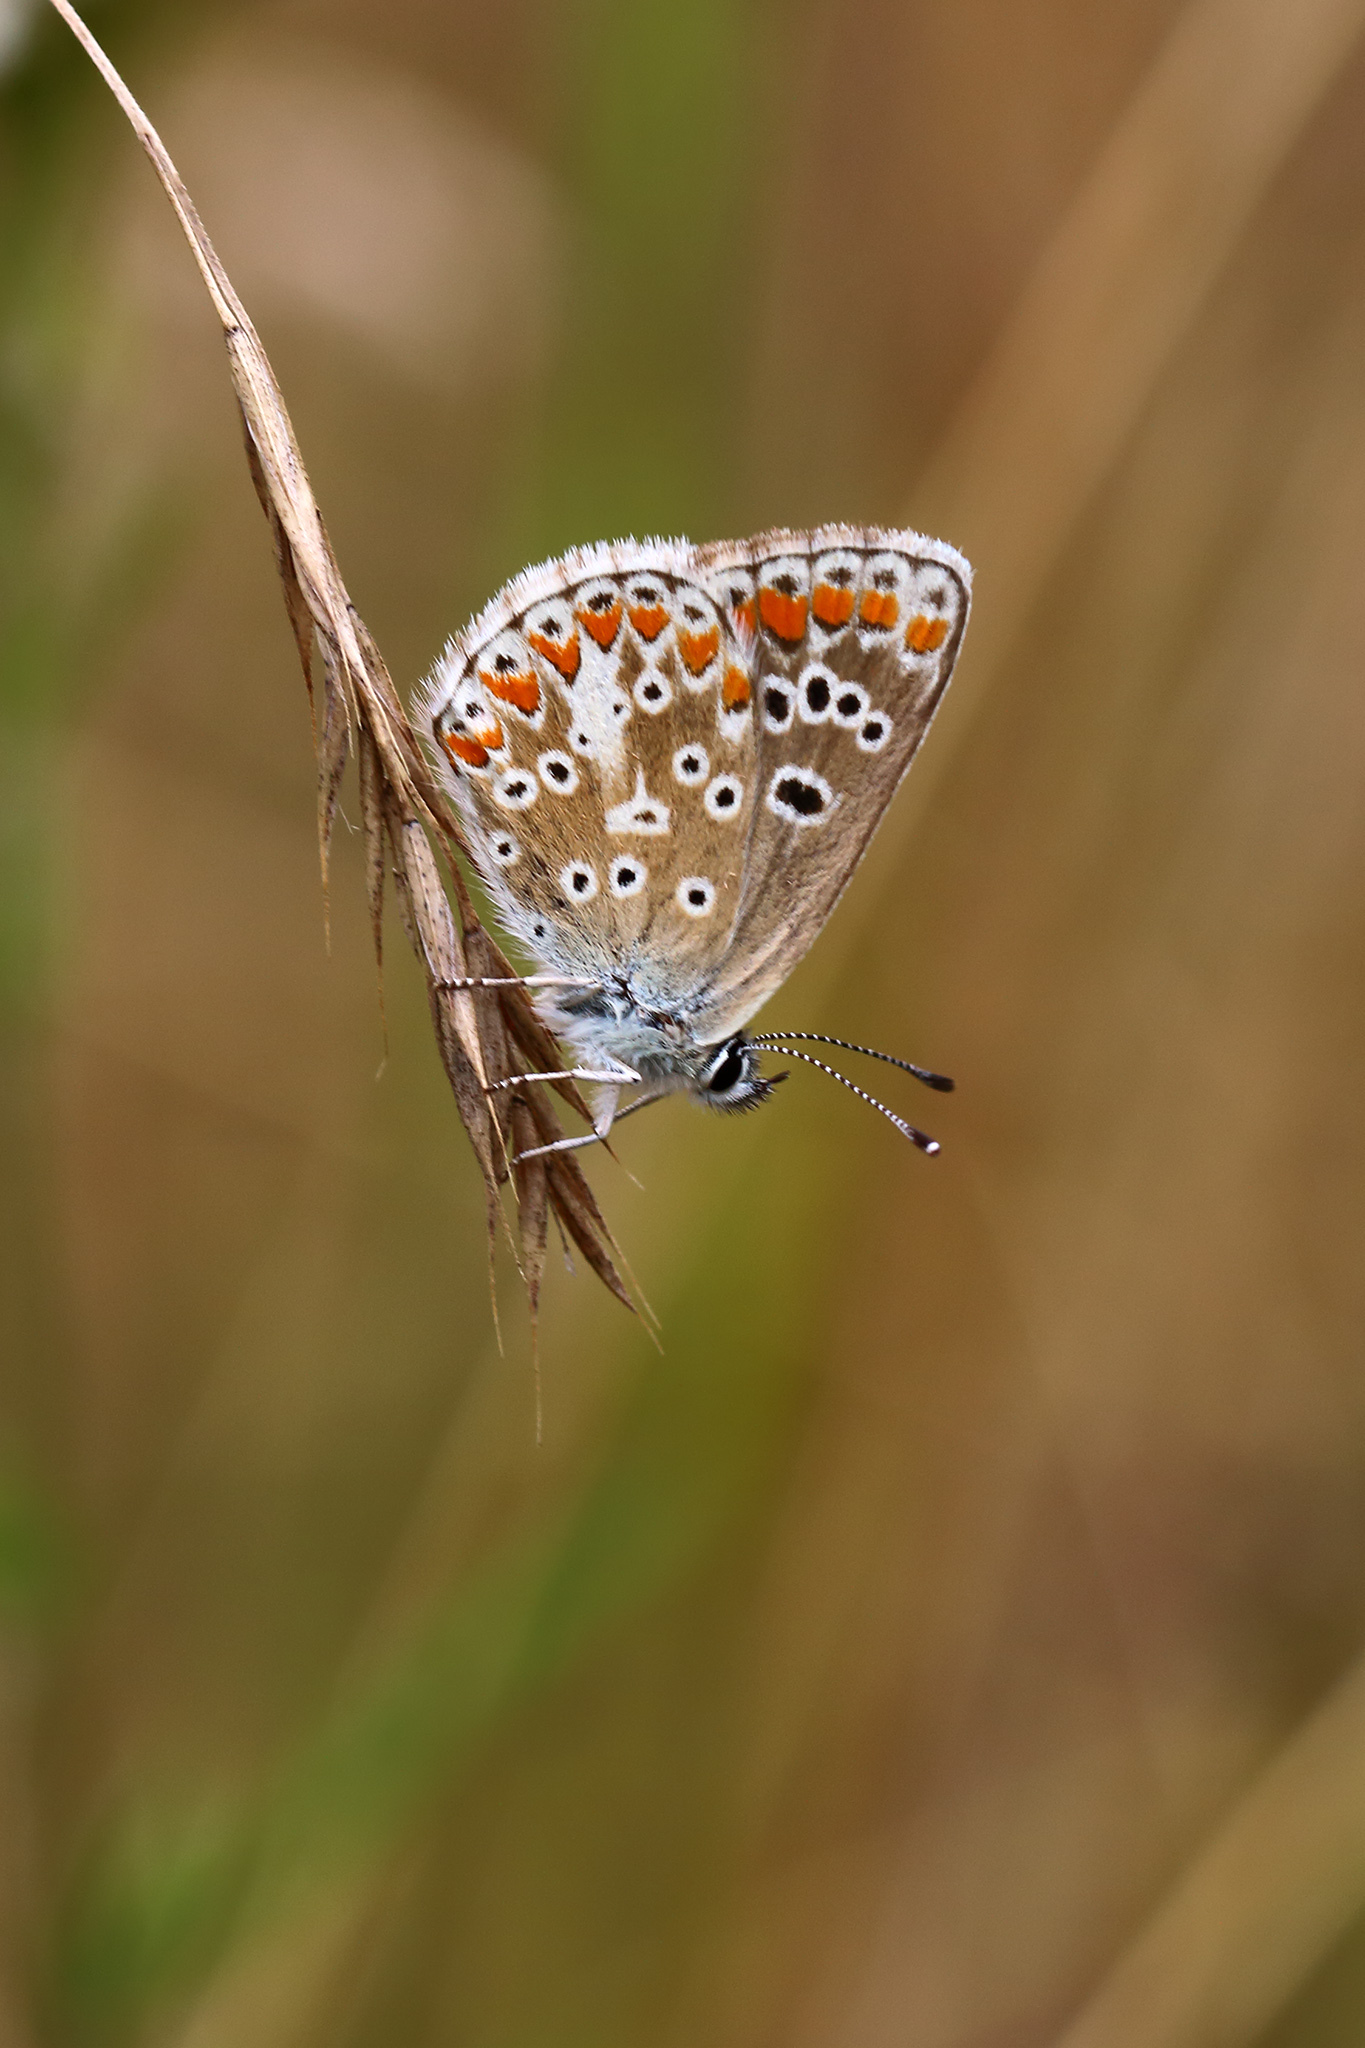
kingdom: Animalia
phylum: Arthropoda
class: Insecta
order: Lepidoptera
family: Lycaenidae
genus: Aricia
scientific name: Aricia agestis
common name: Brown argus
